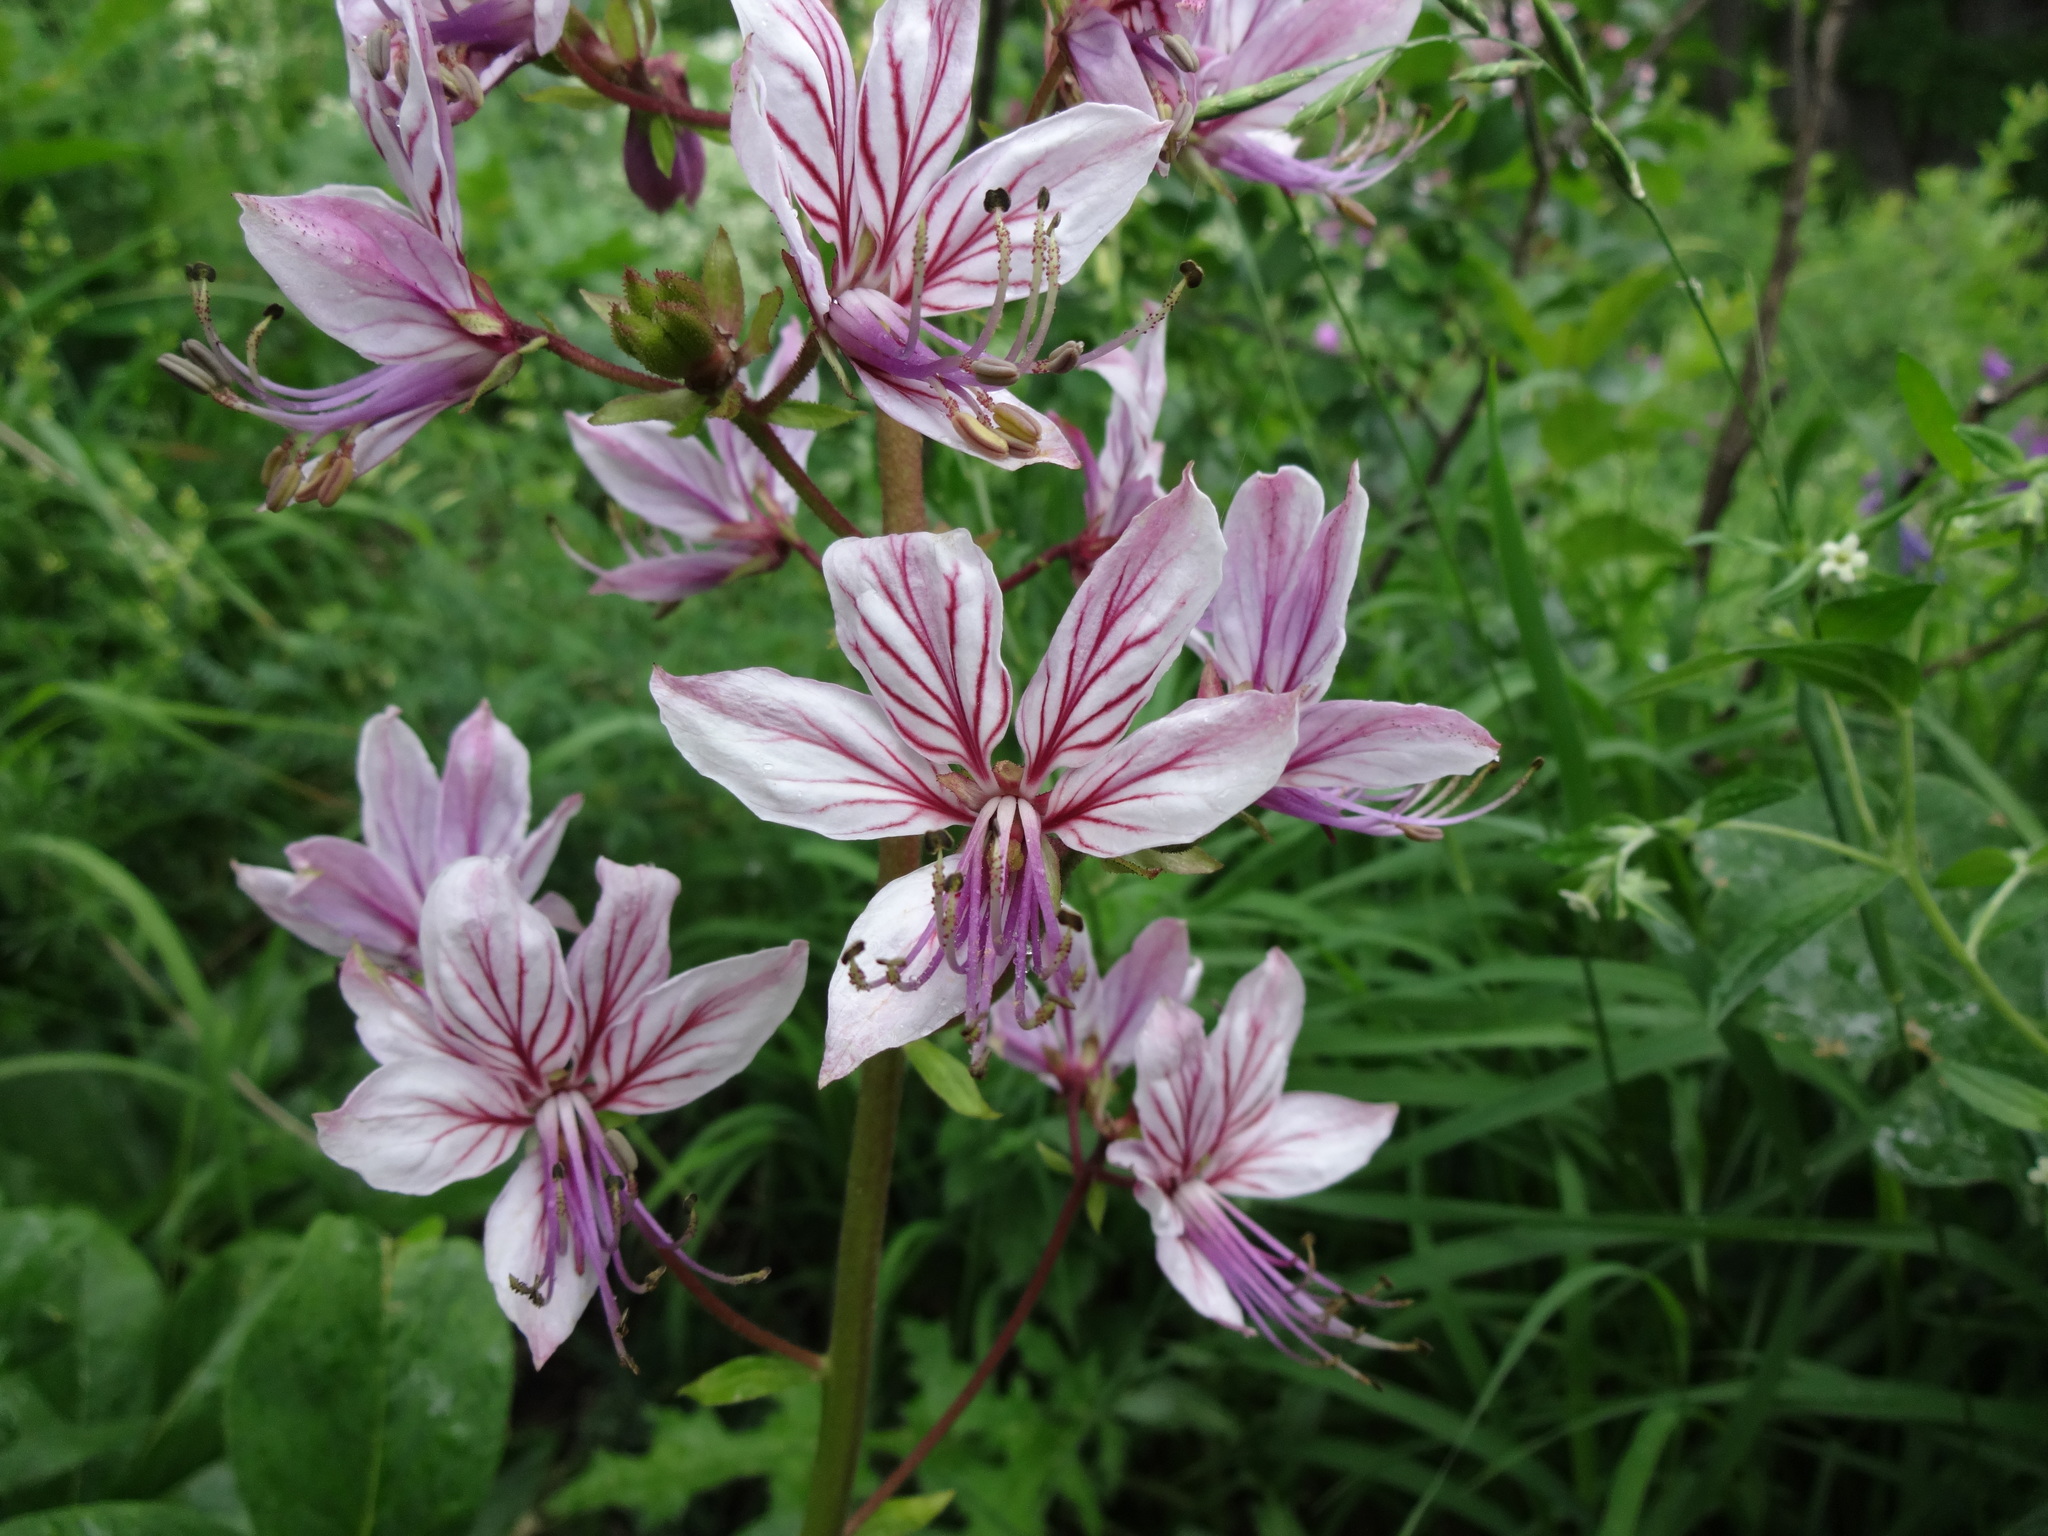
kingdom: Plantae
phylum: Tracheophyta
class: Magnoliopsida
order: Sapindales
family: Rutaceae
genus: Dictamnus
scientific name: Dictamnus albus
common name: Gasplant
